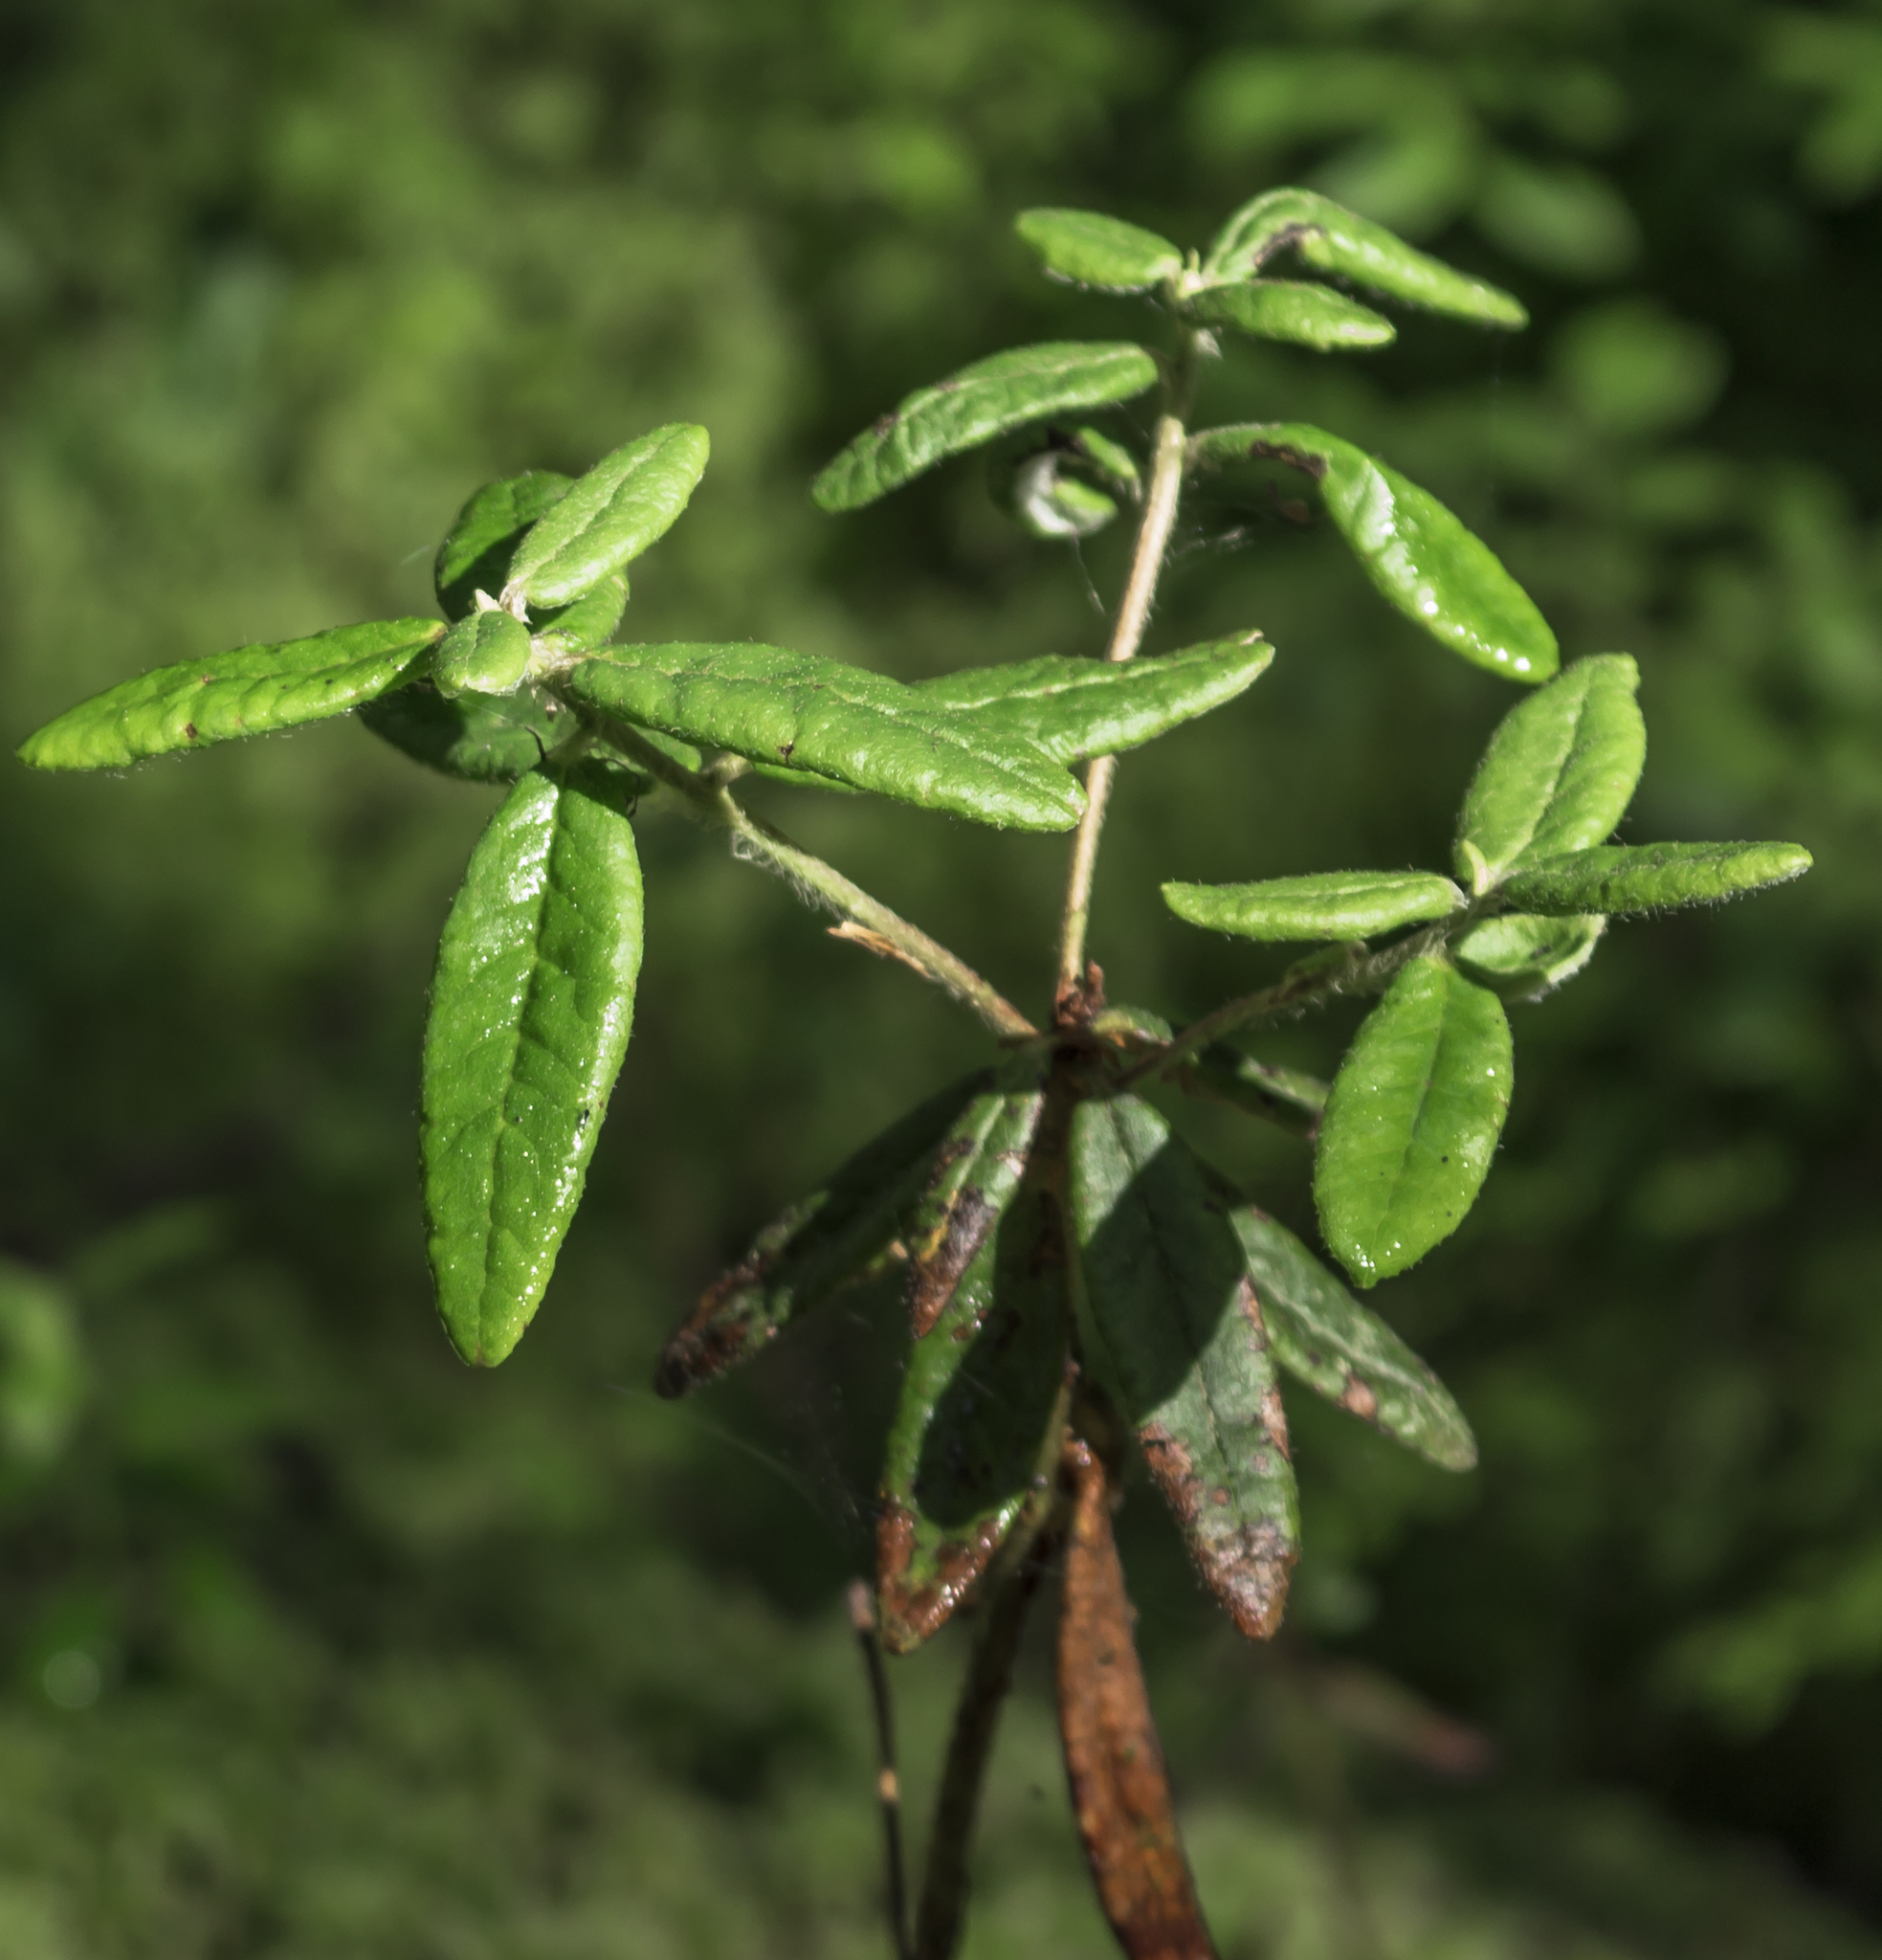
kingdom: Plantae
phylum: Tracheophyta
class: Magnoliopsida
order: Ericales
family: Ericaceae
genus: Rhododendron
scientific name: Rhododendron groenlandicum
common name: Bog labrador tea
